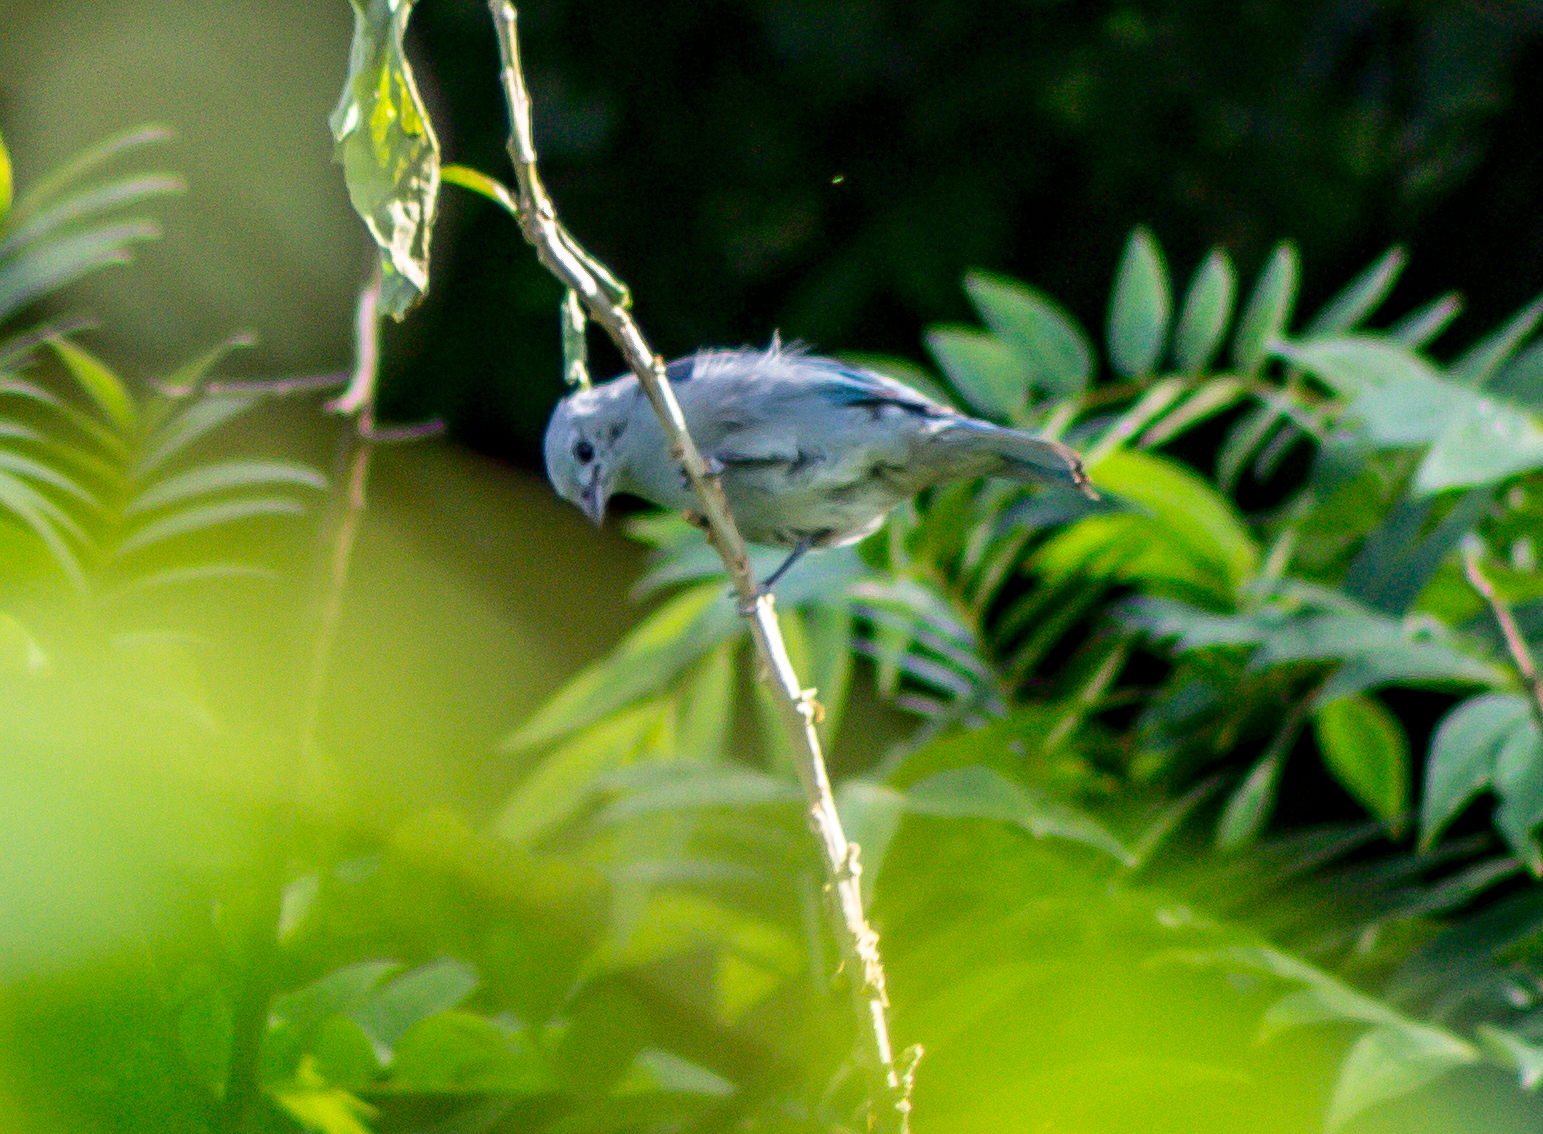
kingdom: Animalia
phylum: Chordata
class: Aves
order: Passeriformes
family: Thraupidae
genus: Thraupis
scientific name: Thraupis episcopus
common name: Blue-grey tanager
